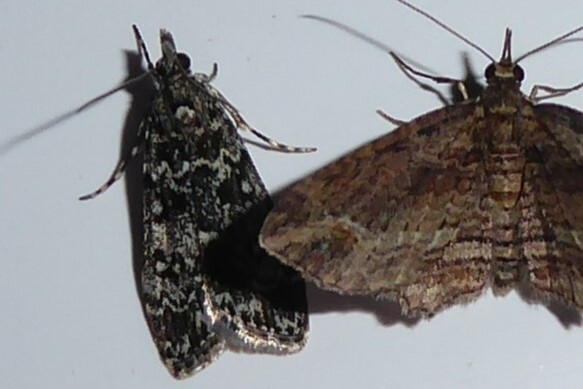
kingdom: Animalia
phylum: Arthropoda
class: Insecta
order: Lepidoptera
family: Crambidae
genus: Eudonia
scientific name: Eudonia philerga
